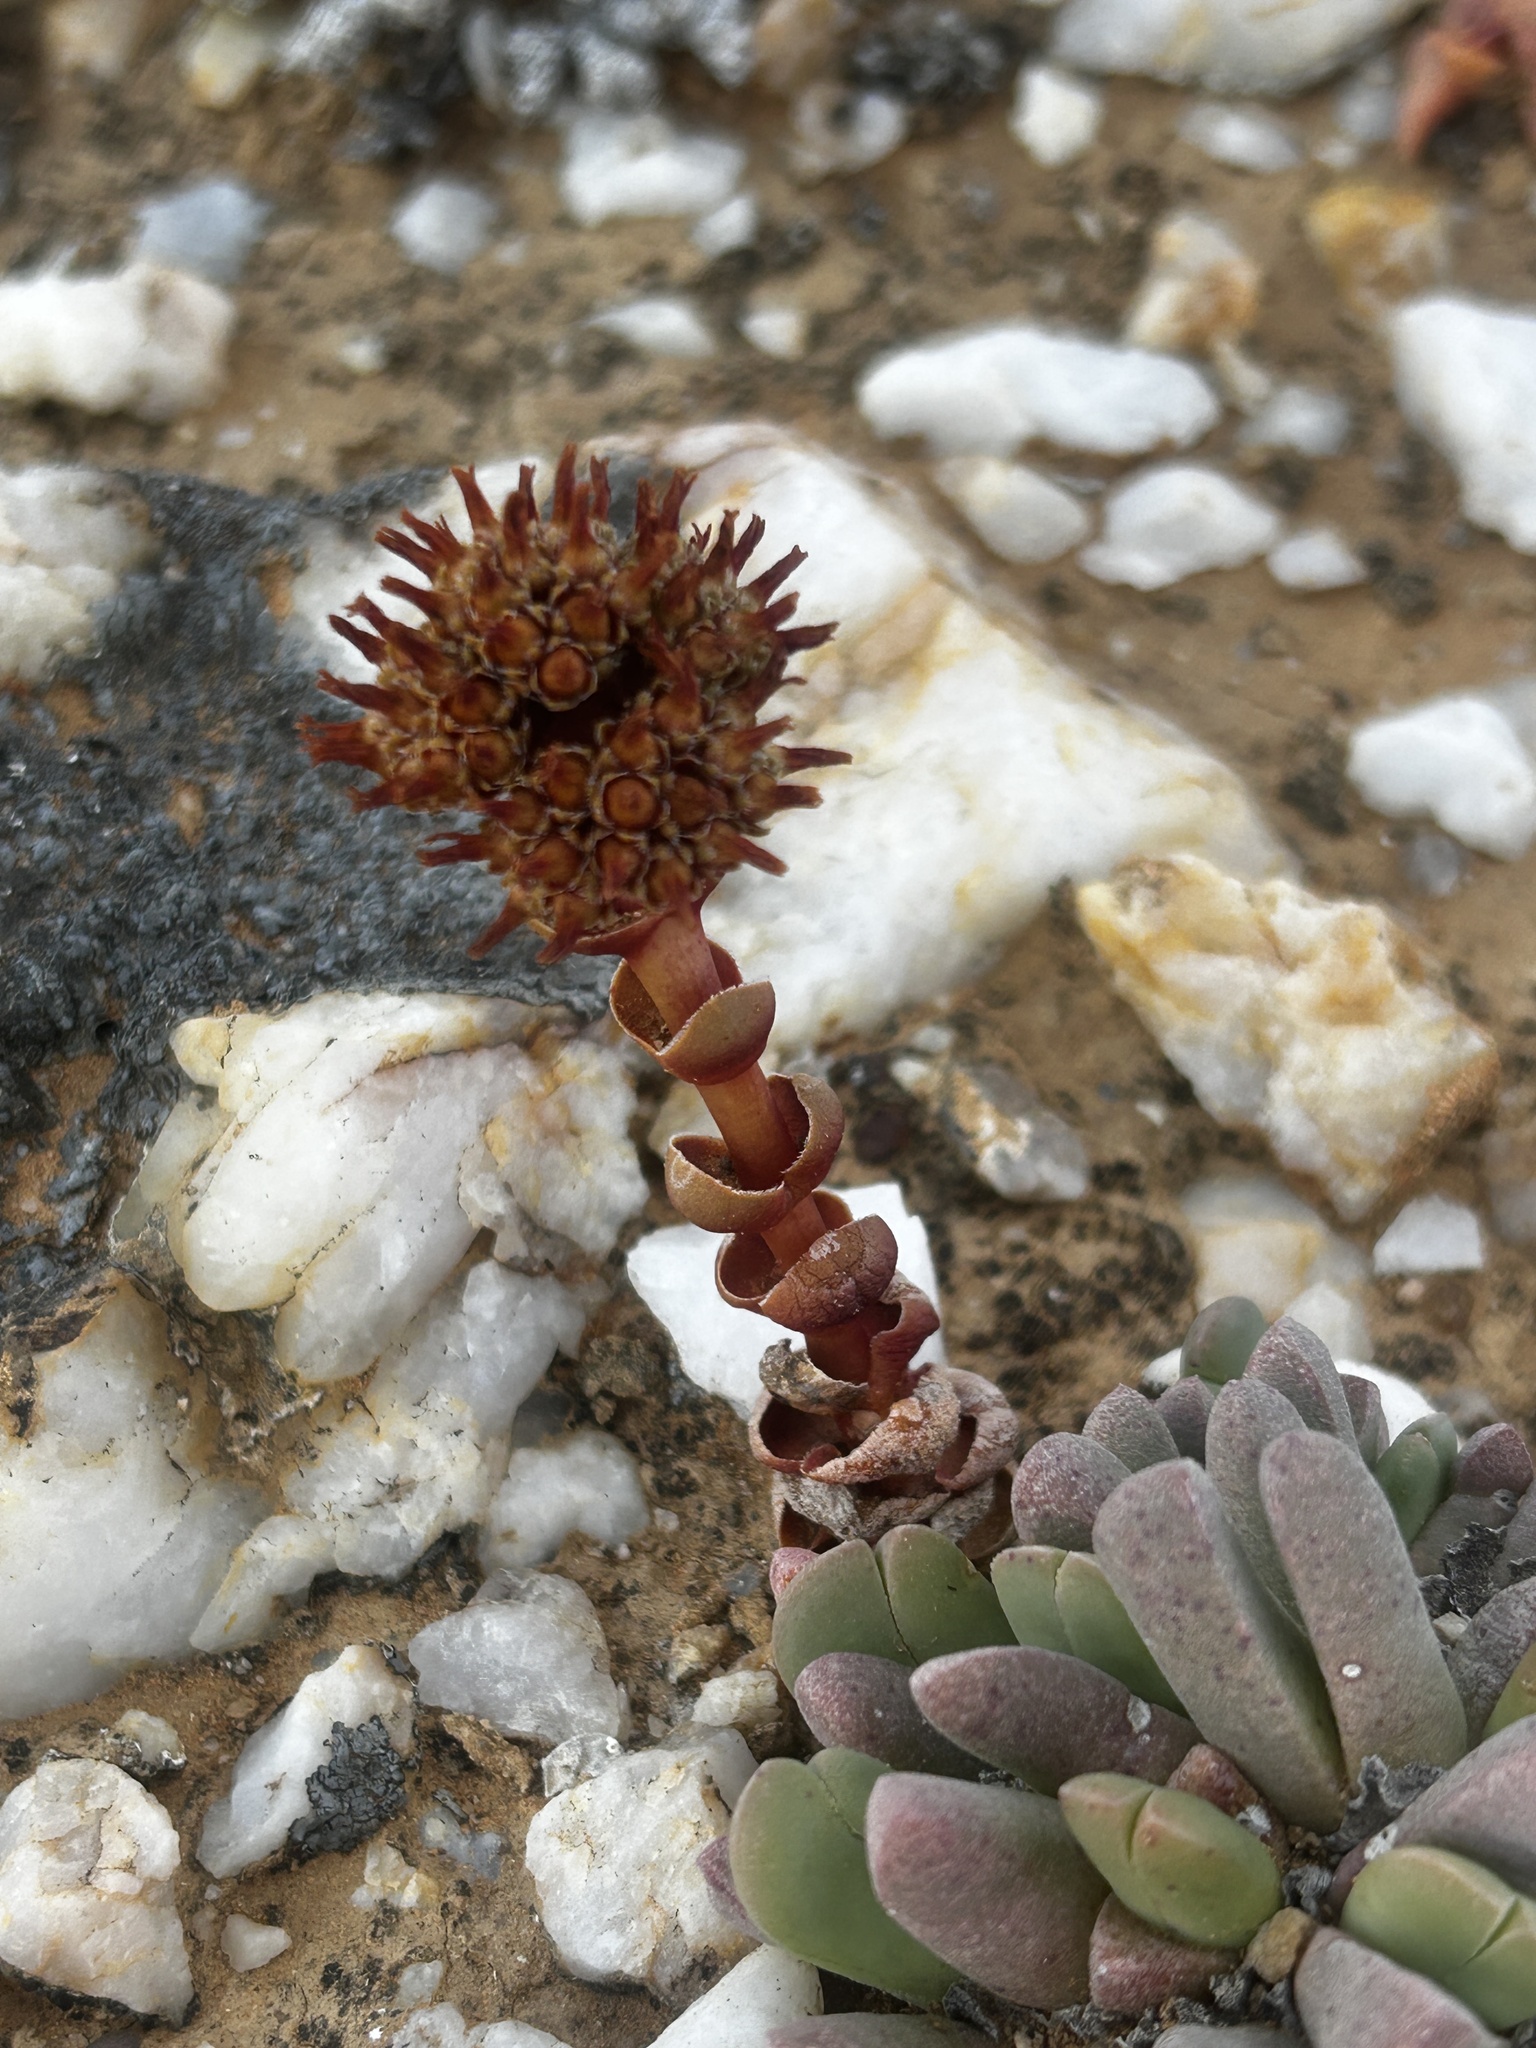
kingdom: Plantae
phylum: Tracheophyta
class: Magnoliopsida
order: Saxifragales
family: Crassulaceae
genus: Crassula
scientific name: Crassula columnaris
